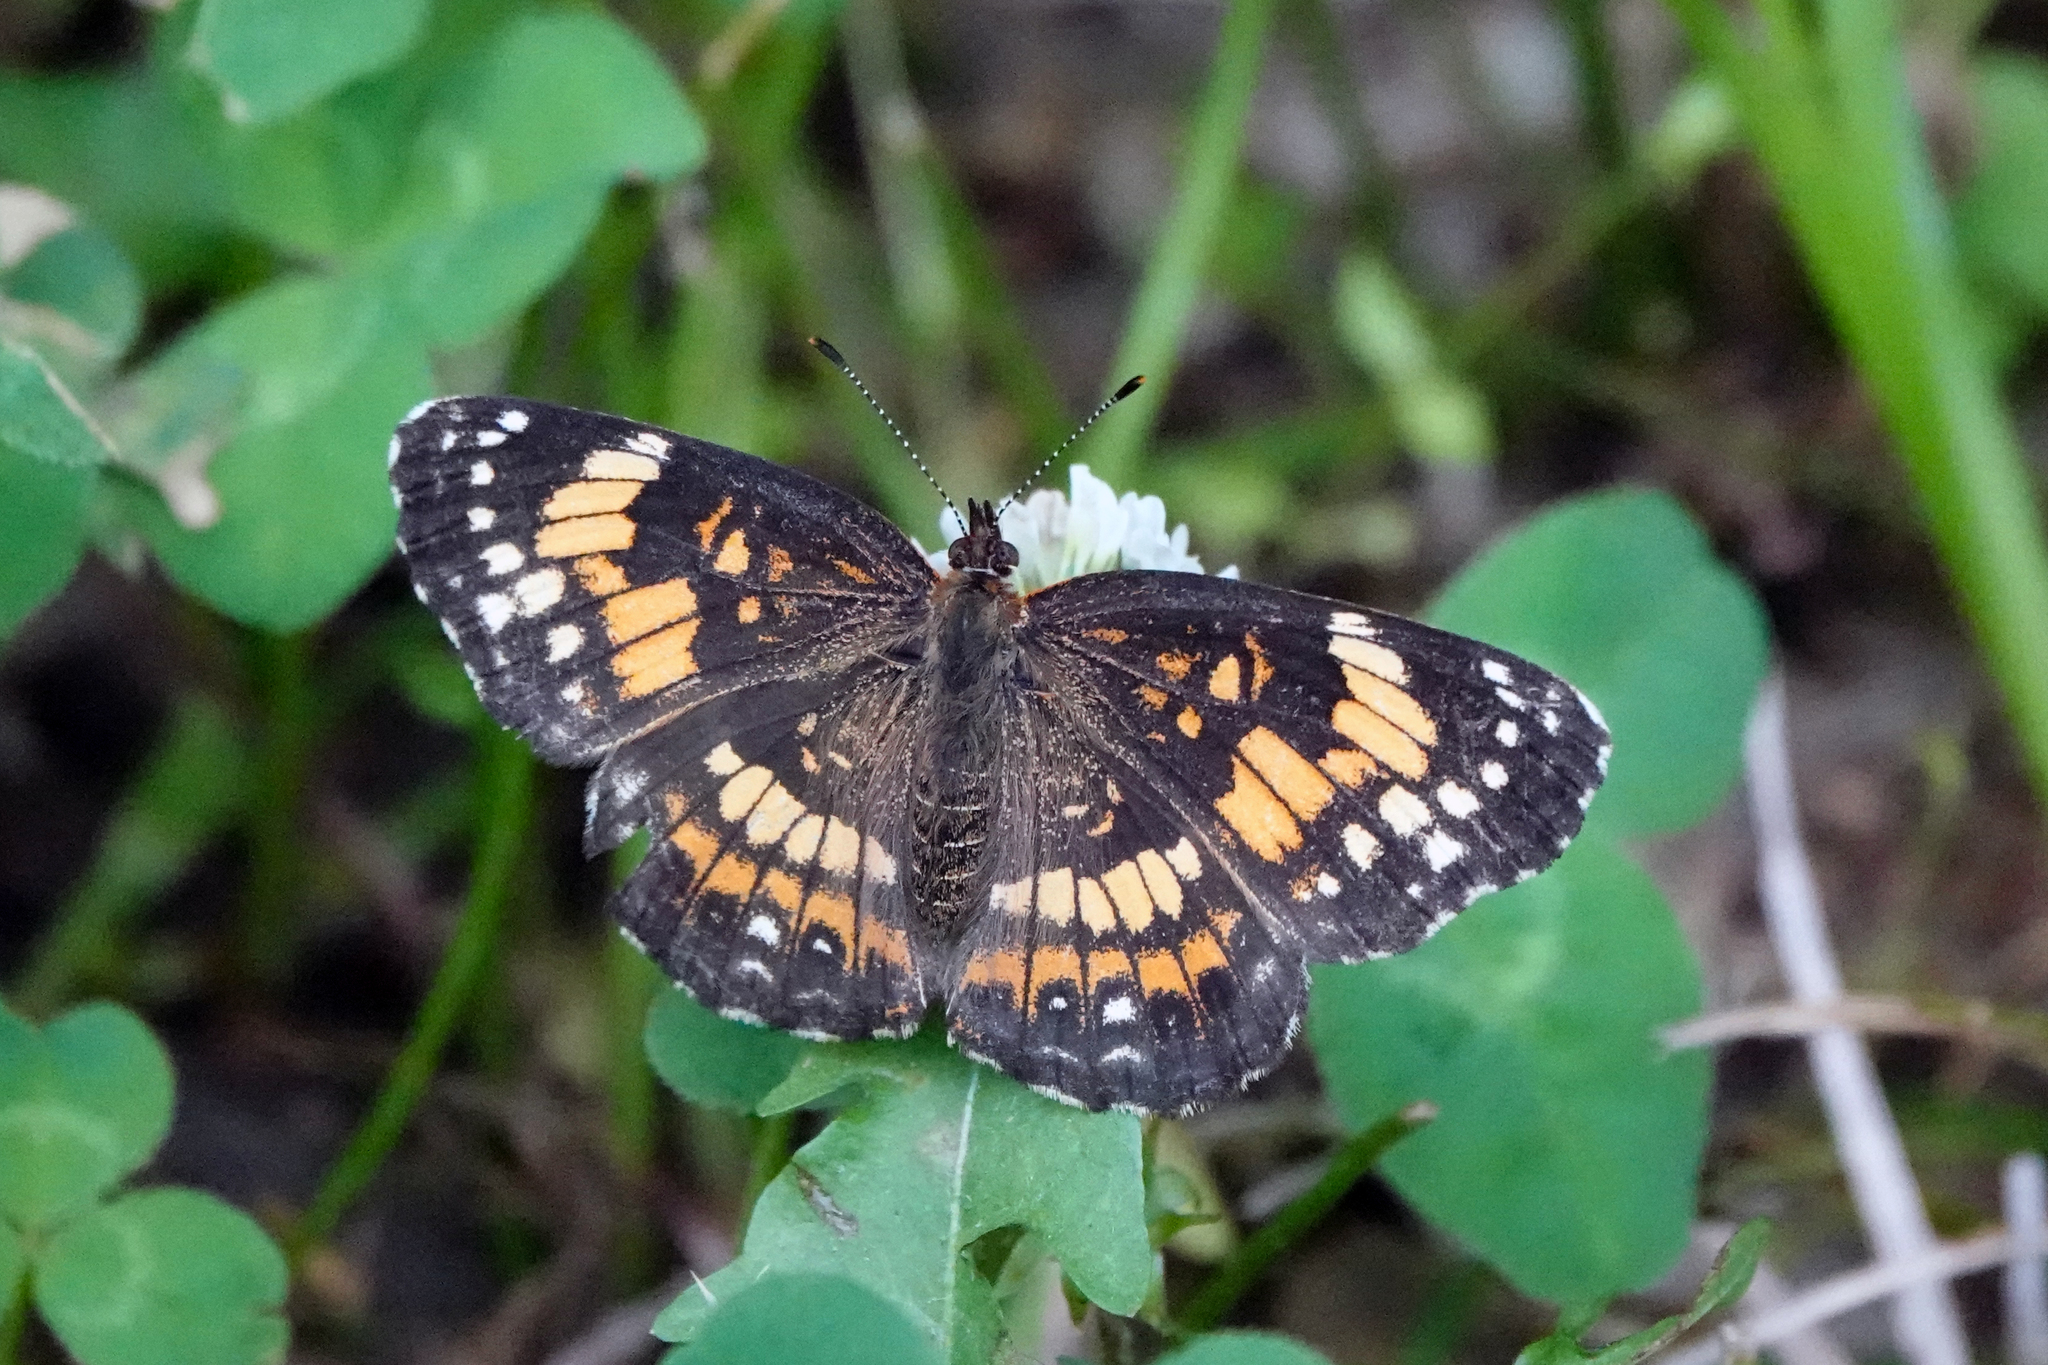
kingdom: Animalia
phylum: Arthropoda
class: Insecta
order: Lepidoptera
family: Nymphalidae
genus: Chlosyne
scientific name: Chlosyne nycteis
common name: Silvery checkerspot
